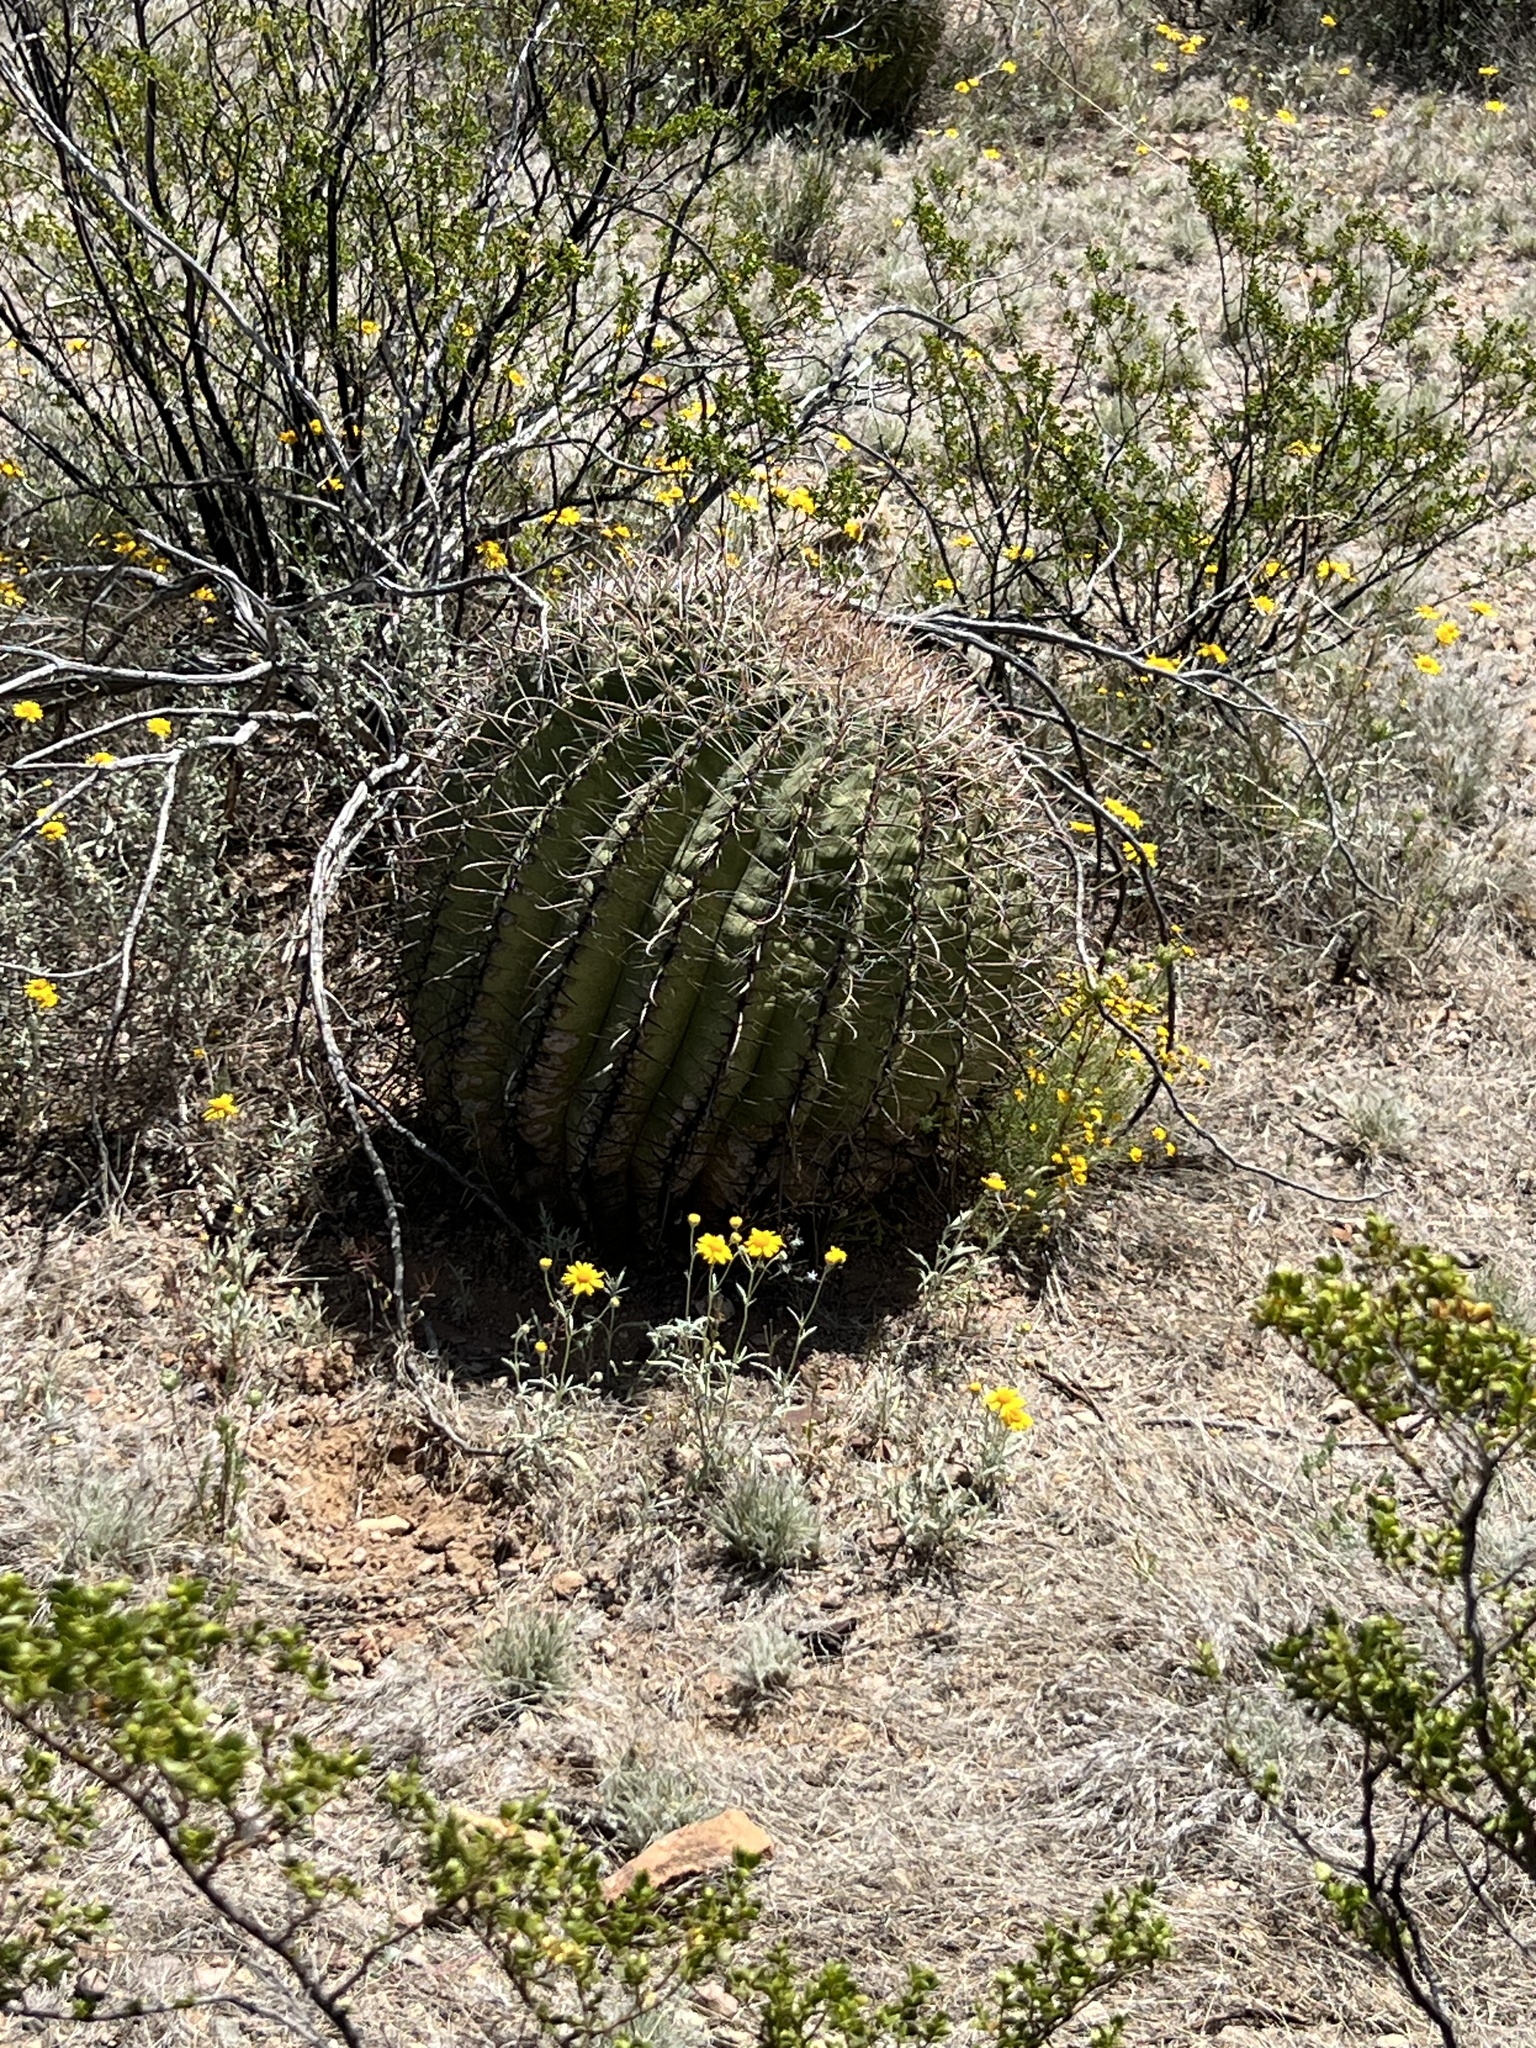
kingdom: Plantae
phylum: Tracheophyta
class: Magnoliopsida
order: Caryophyllales
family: Cactaceae
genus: Ferocactus
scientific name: Ferocactus wislizeni
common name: Candy barrel cactus
